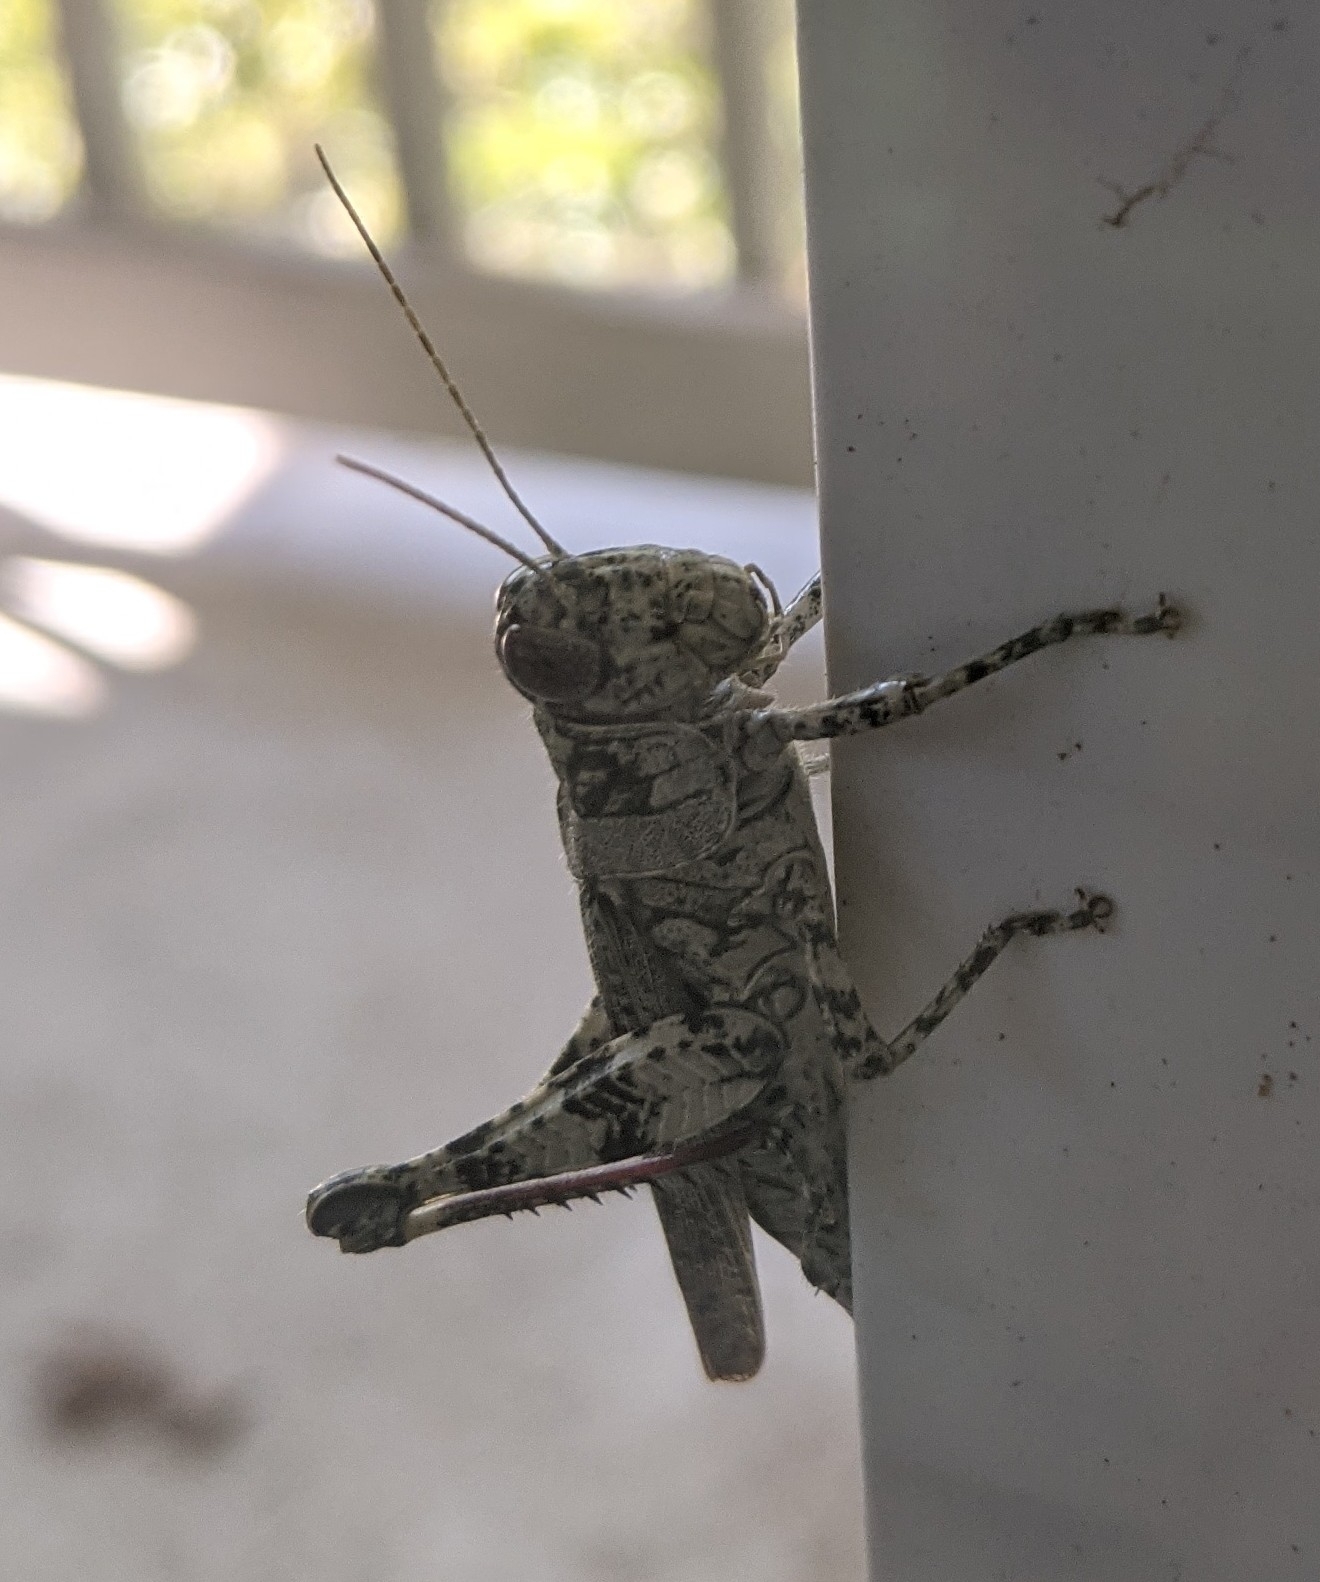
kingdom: Animalia
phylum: Arthropoda
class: Insecta
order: Orthoptera
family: Acrididae
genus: Melanoplus
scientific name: Melanoplus punctulatus
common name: Pine-tree spur-throat grasshopper
